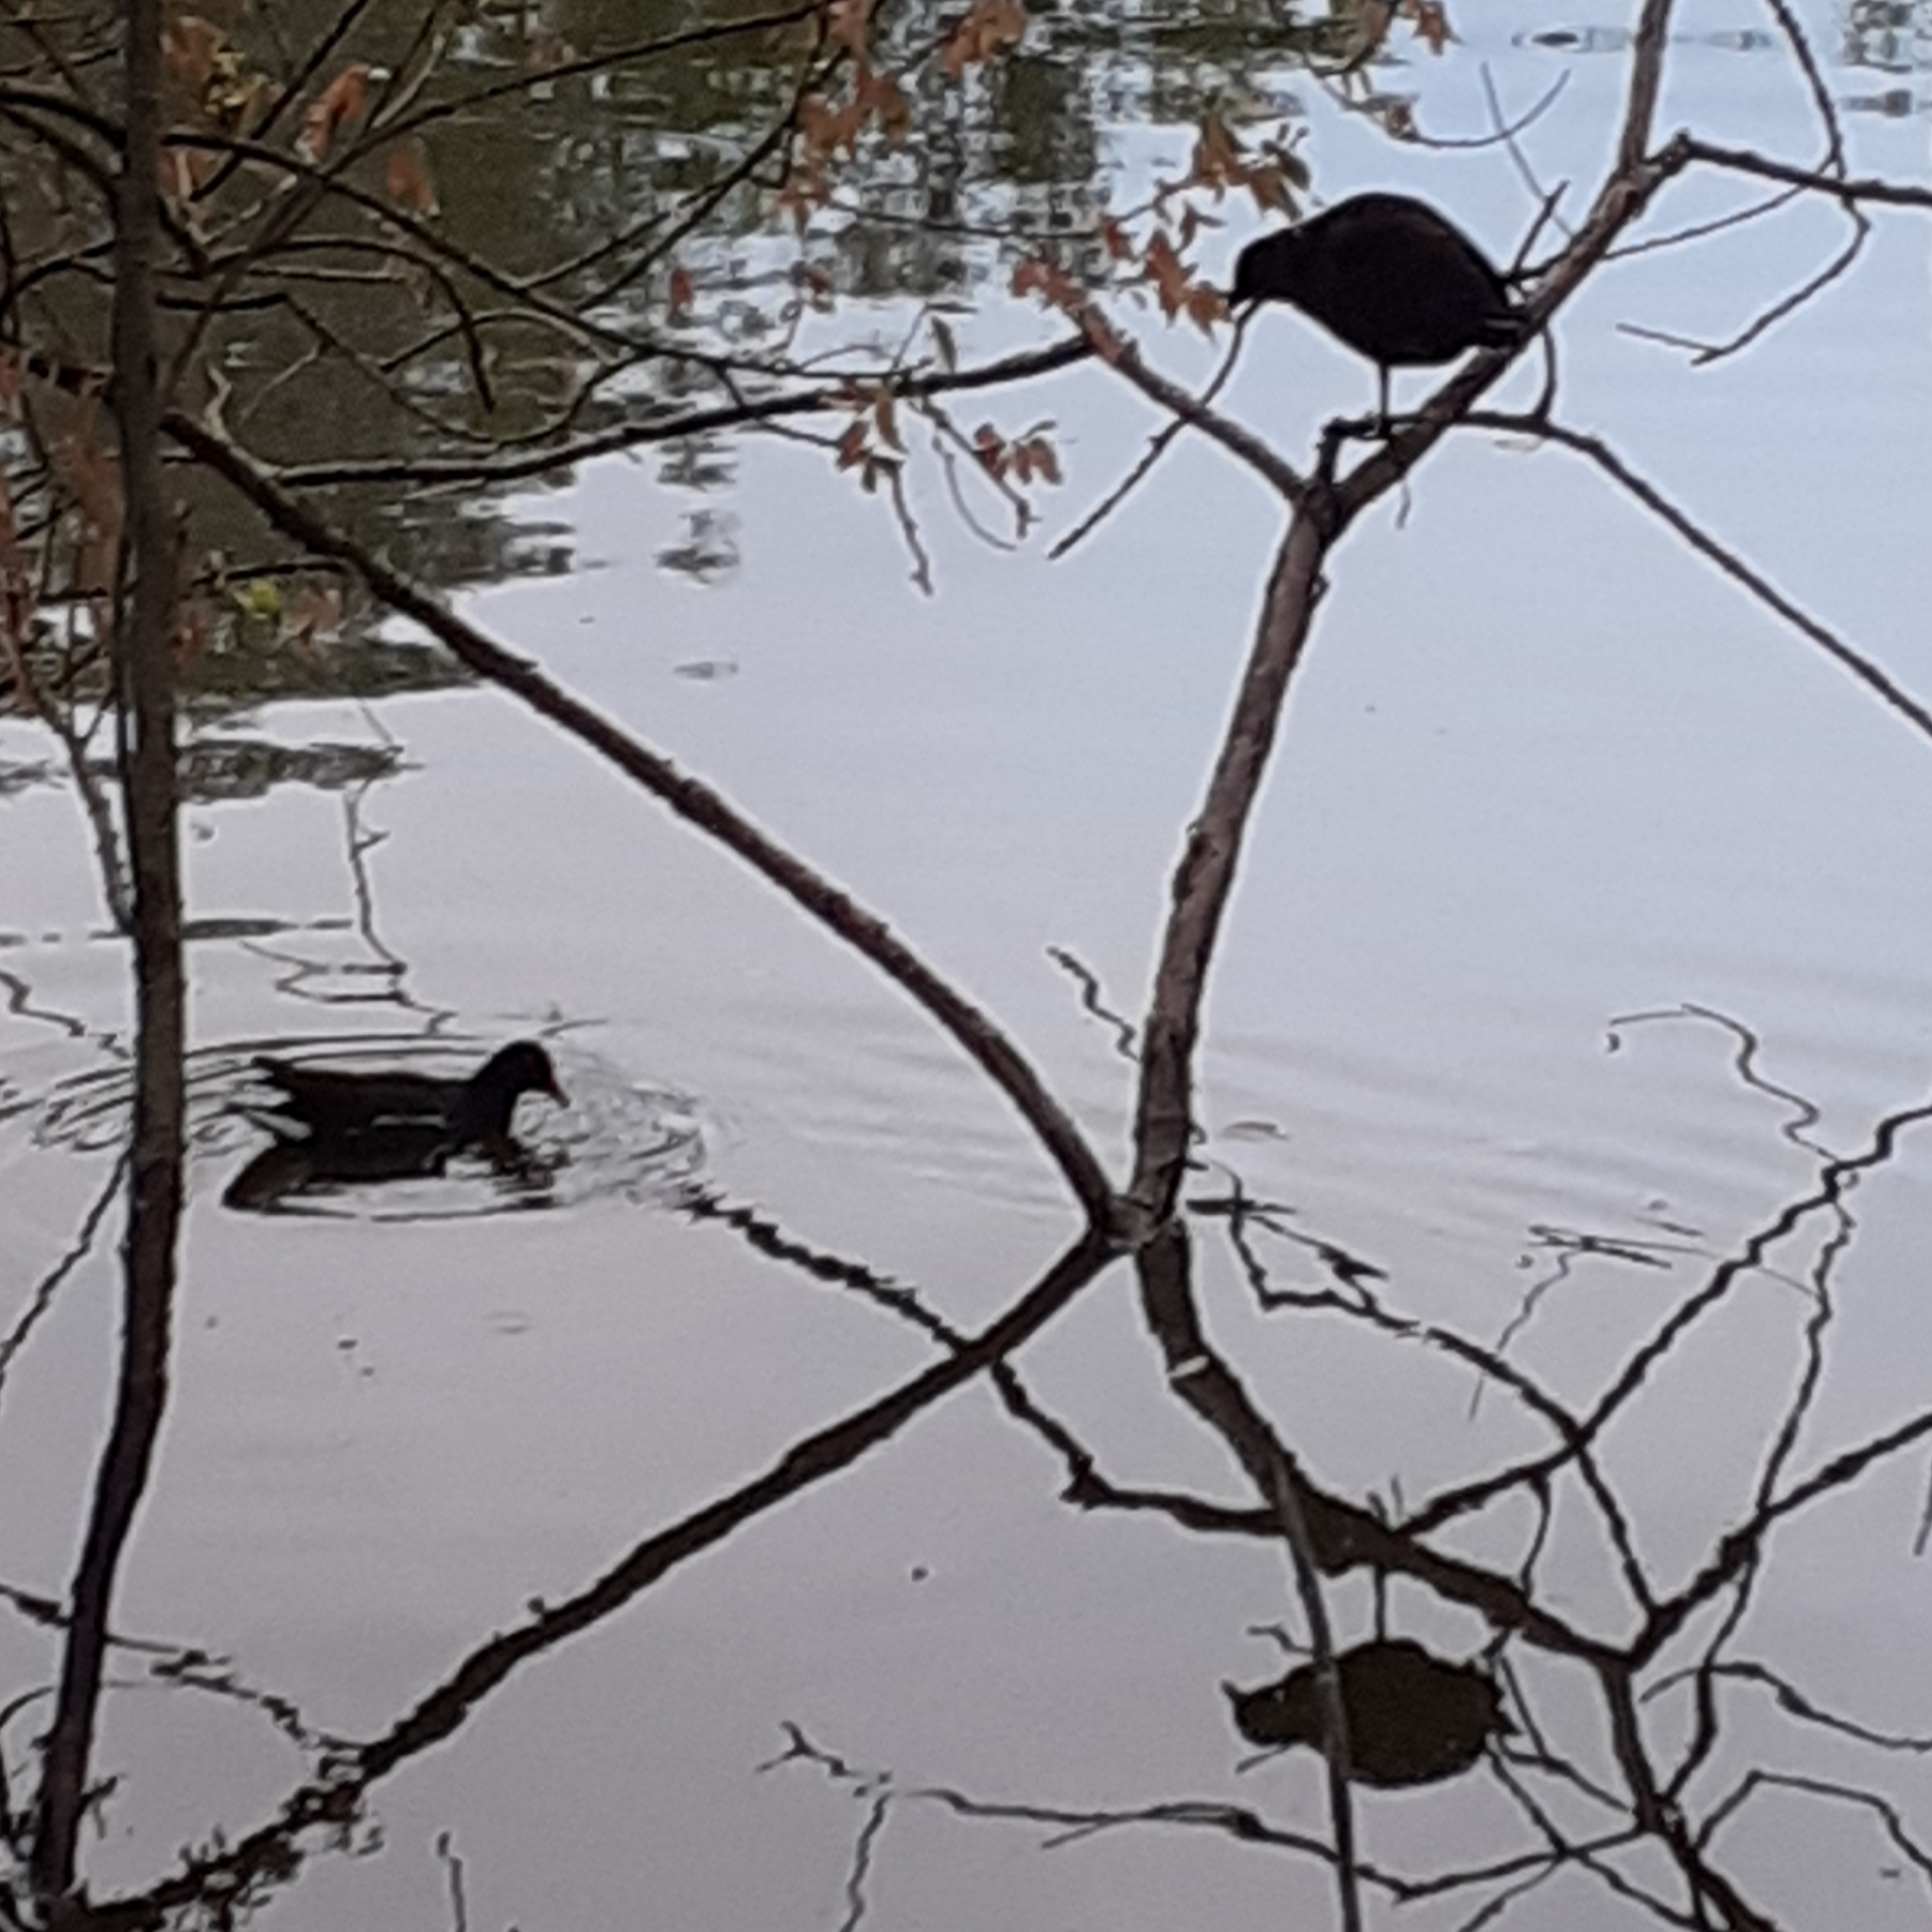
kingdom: Animalia
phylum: Chordata
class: Aves
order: Gruiformes
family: Rallidae
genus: Gallinula
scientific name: Gallinula chloropus
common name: Common moorhen
